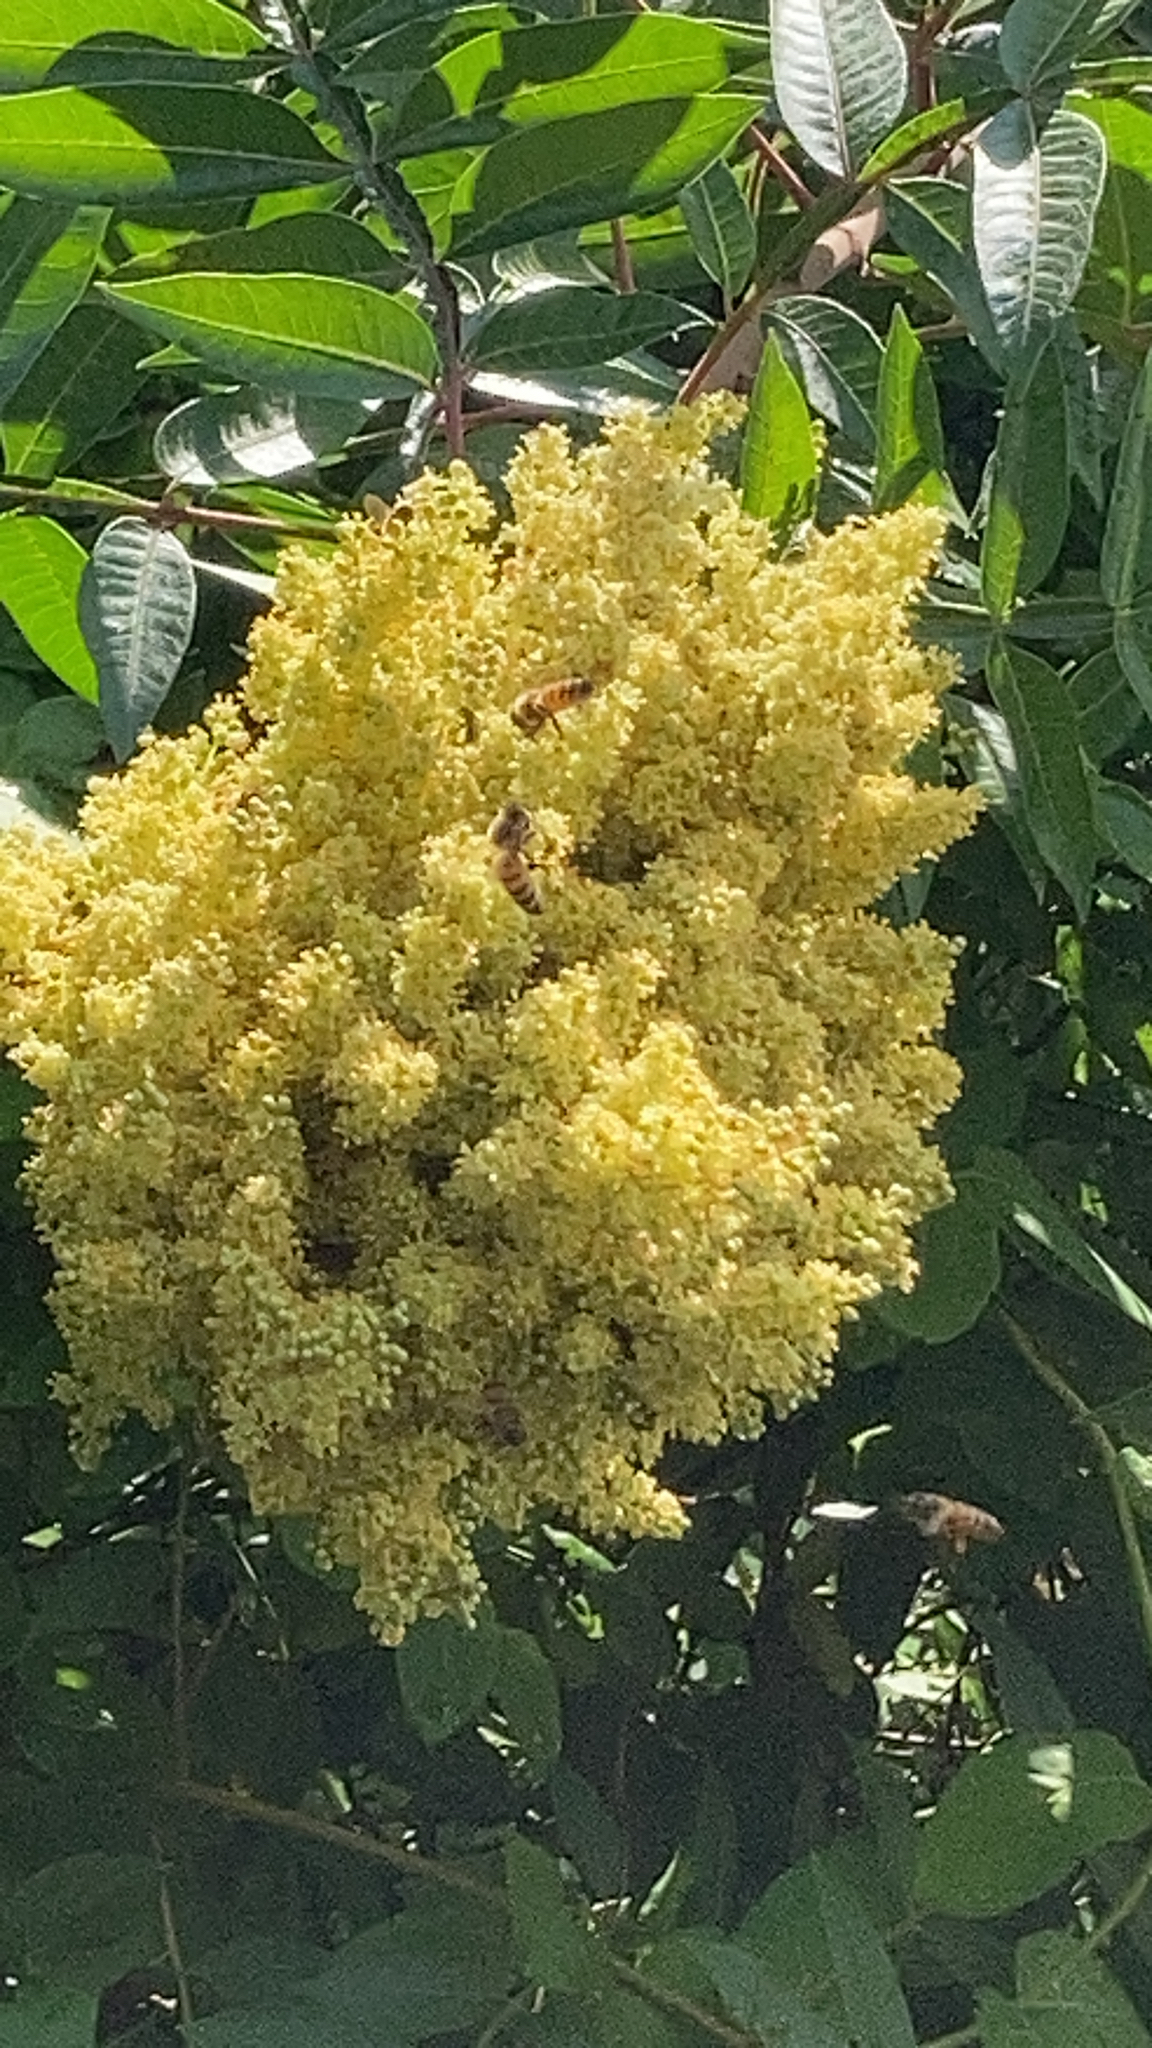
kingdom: Animalia
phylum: Arthropoda
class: Insecta
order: Hymenoptera
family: Apidae
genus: Apis
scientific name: Apis mellifera
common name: Honey bee
